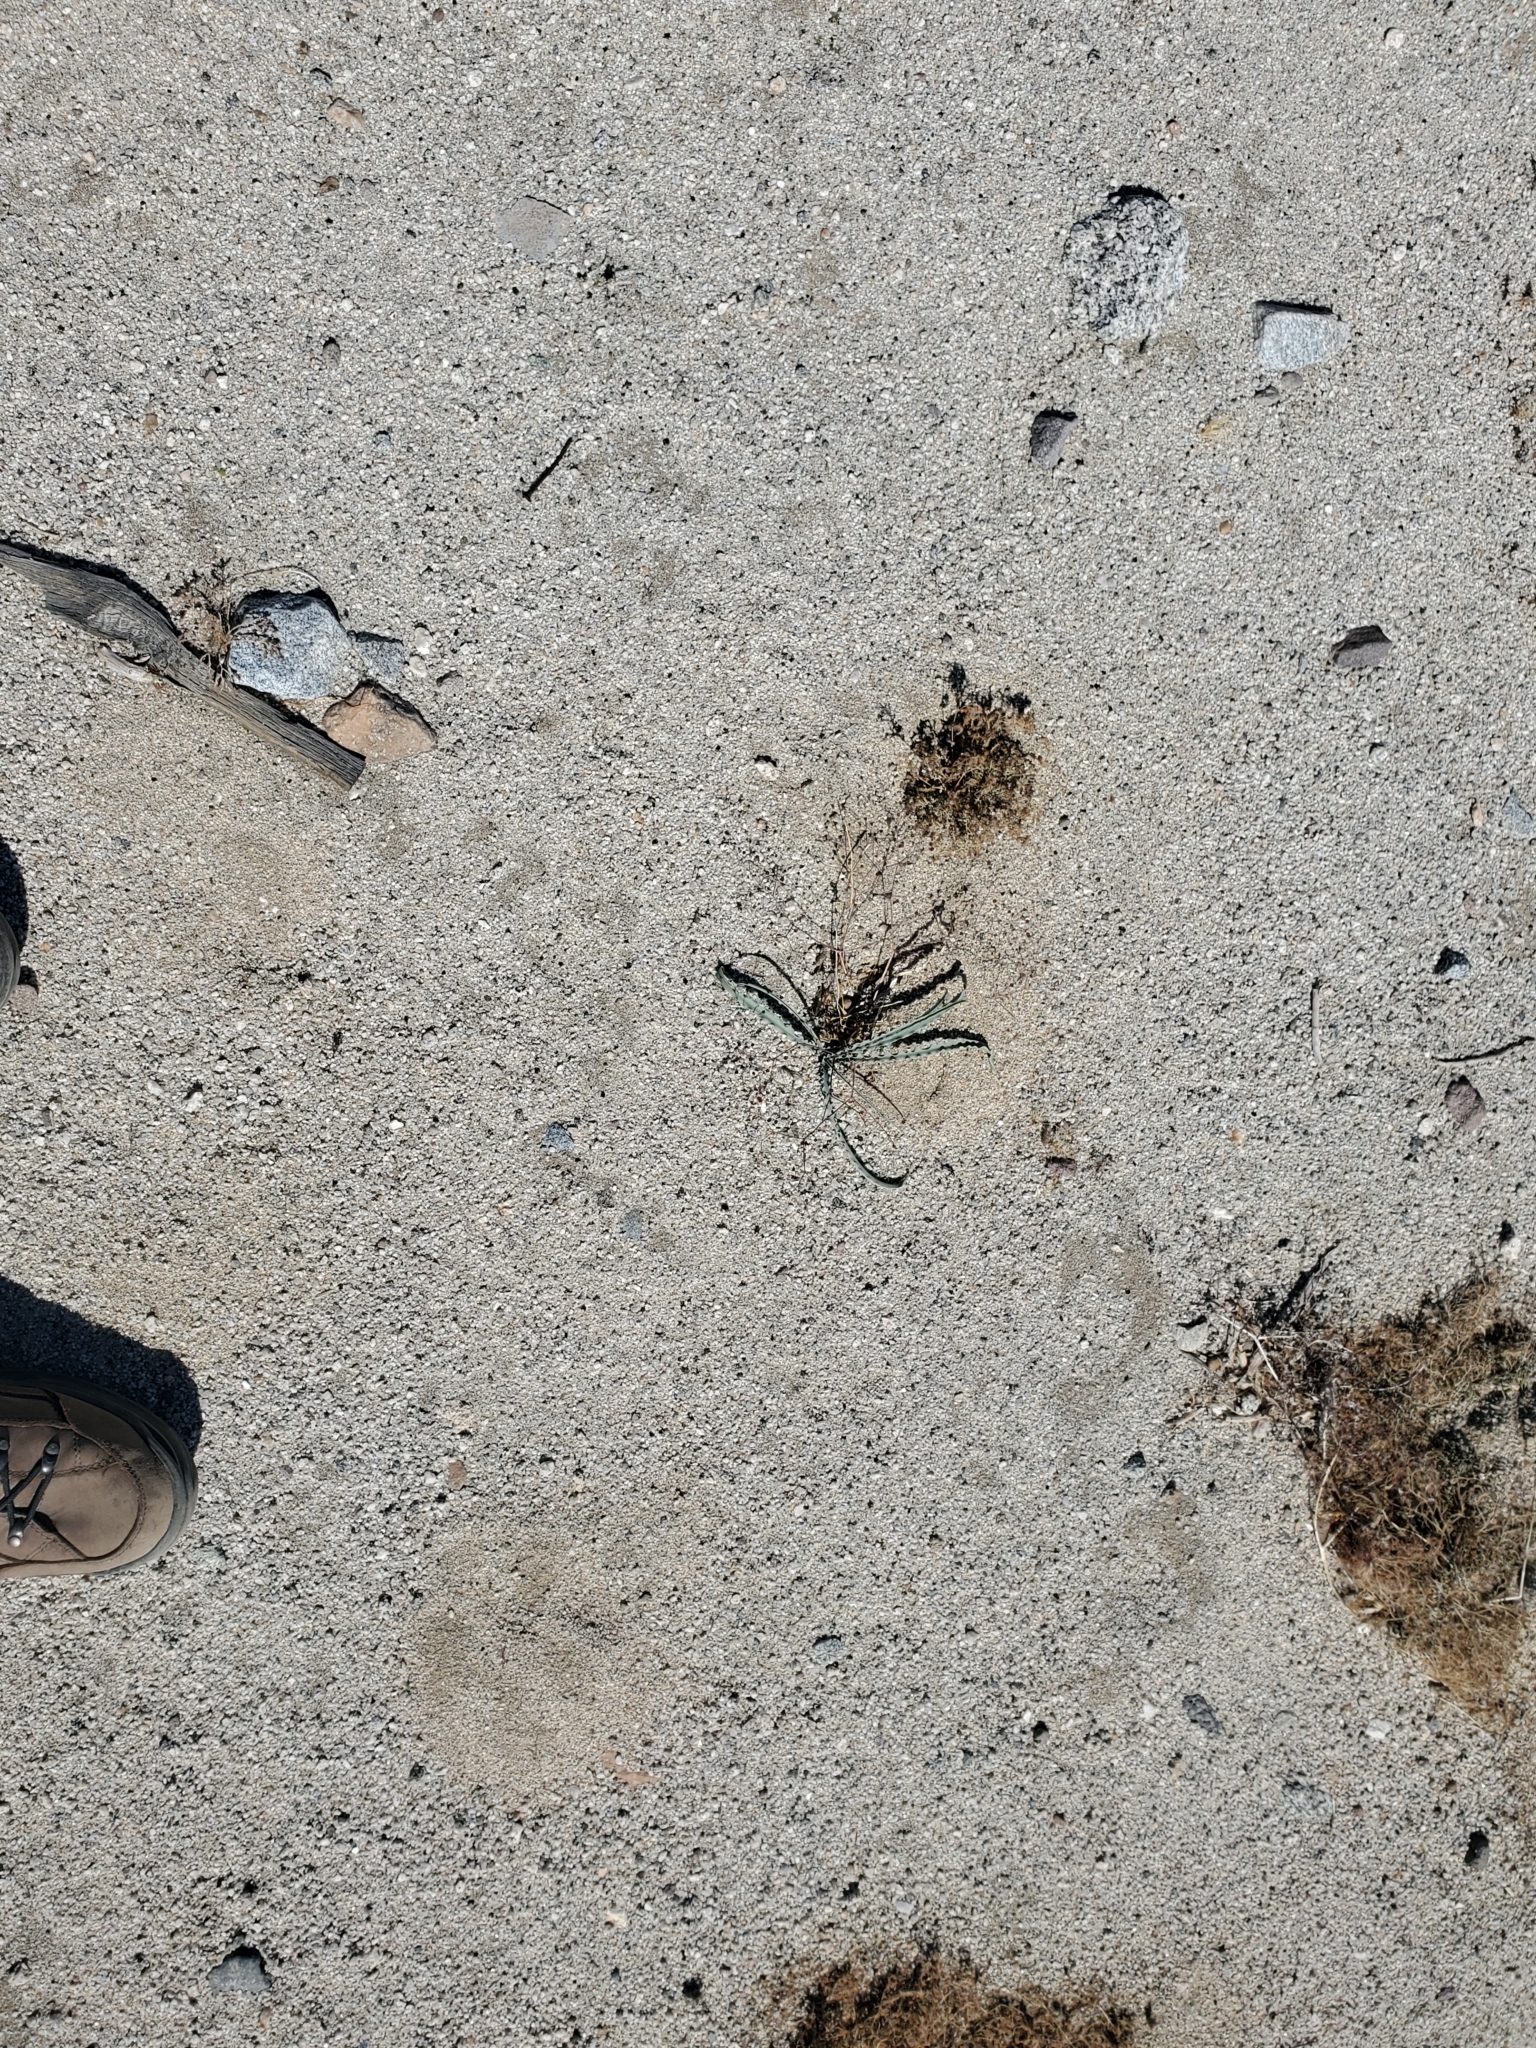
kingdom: Plantae
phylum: Tracheophyta
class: Liliopsida
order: Asparagales
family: Asparagaceae
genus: Hesperocallis
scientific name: Hesperocallis undulata
